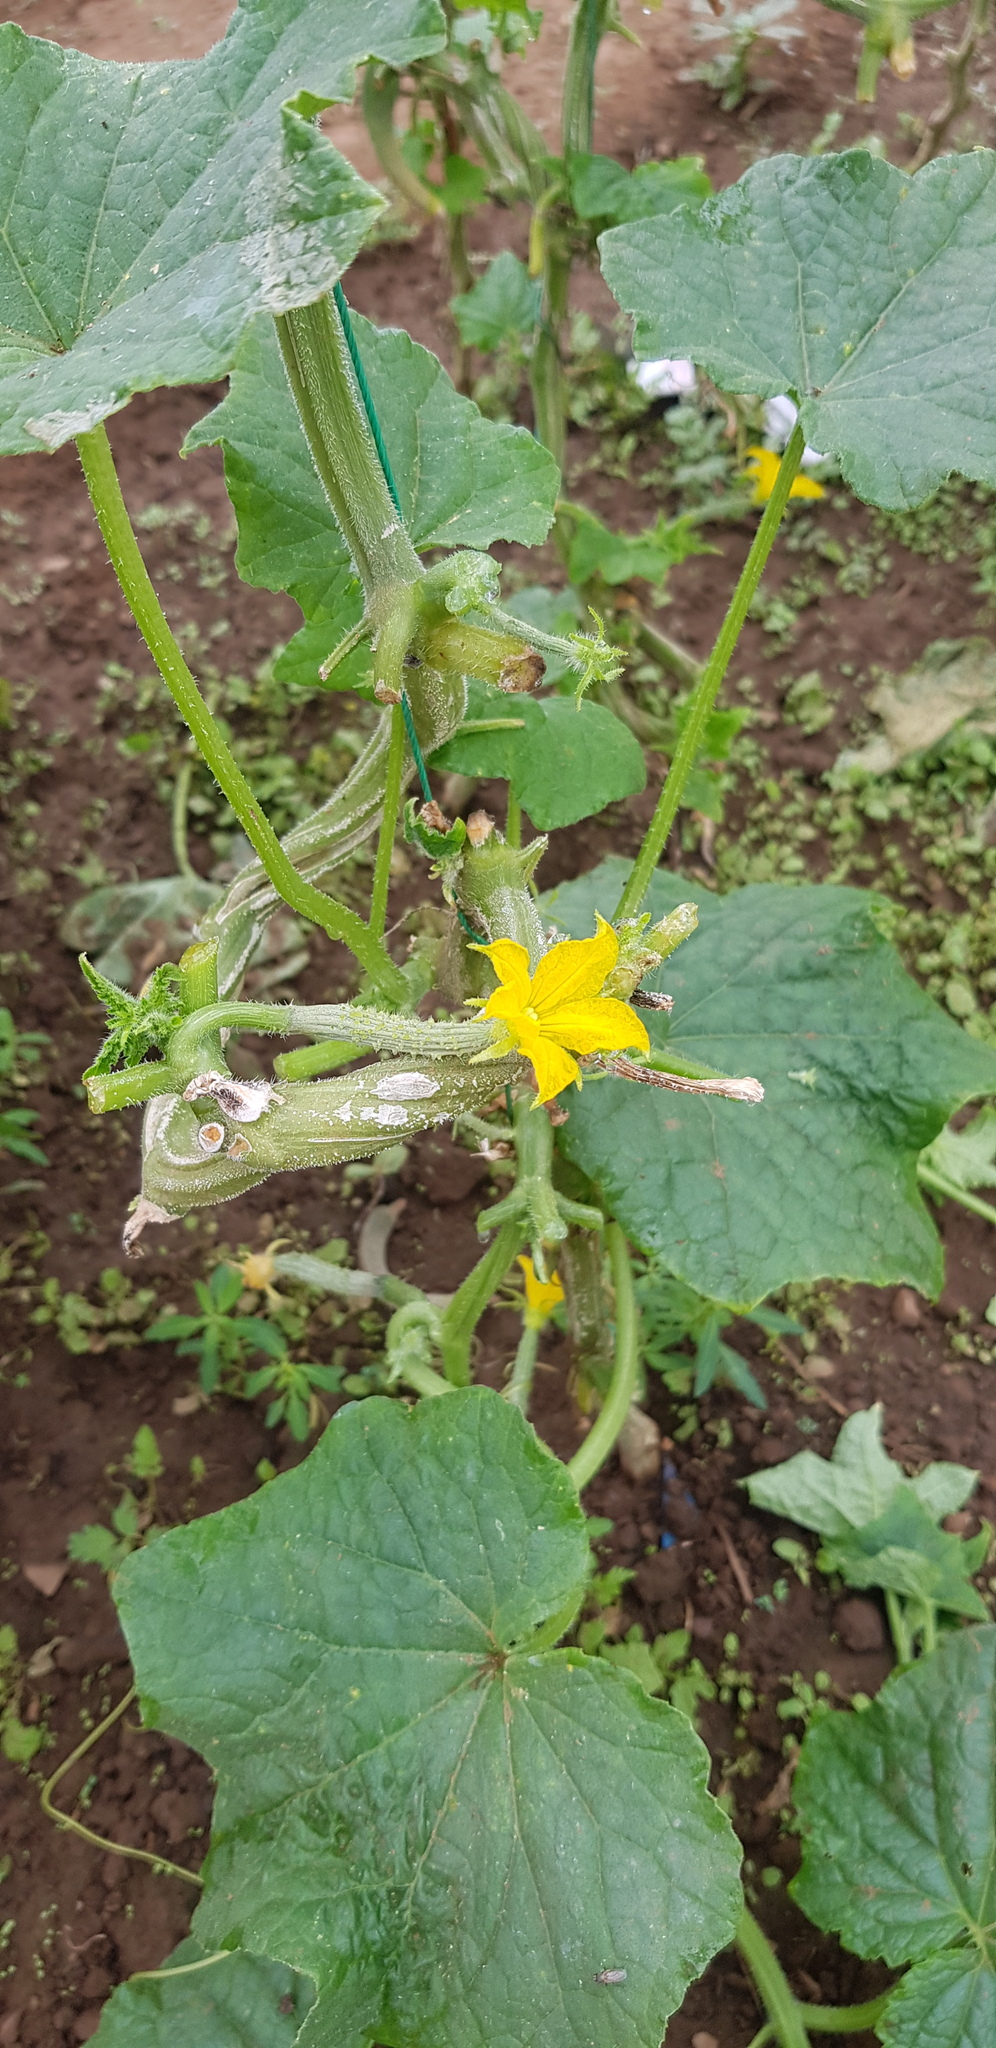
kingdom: Plantae
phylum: Tracheophyta
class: Magnoliopsida
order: Cucurbitales
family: Cucurbitaceae
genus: Cucumis
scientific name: Cucumis sativus
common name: Cucumber
